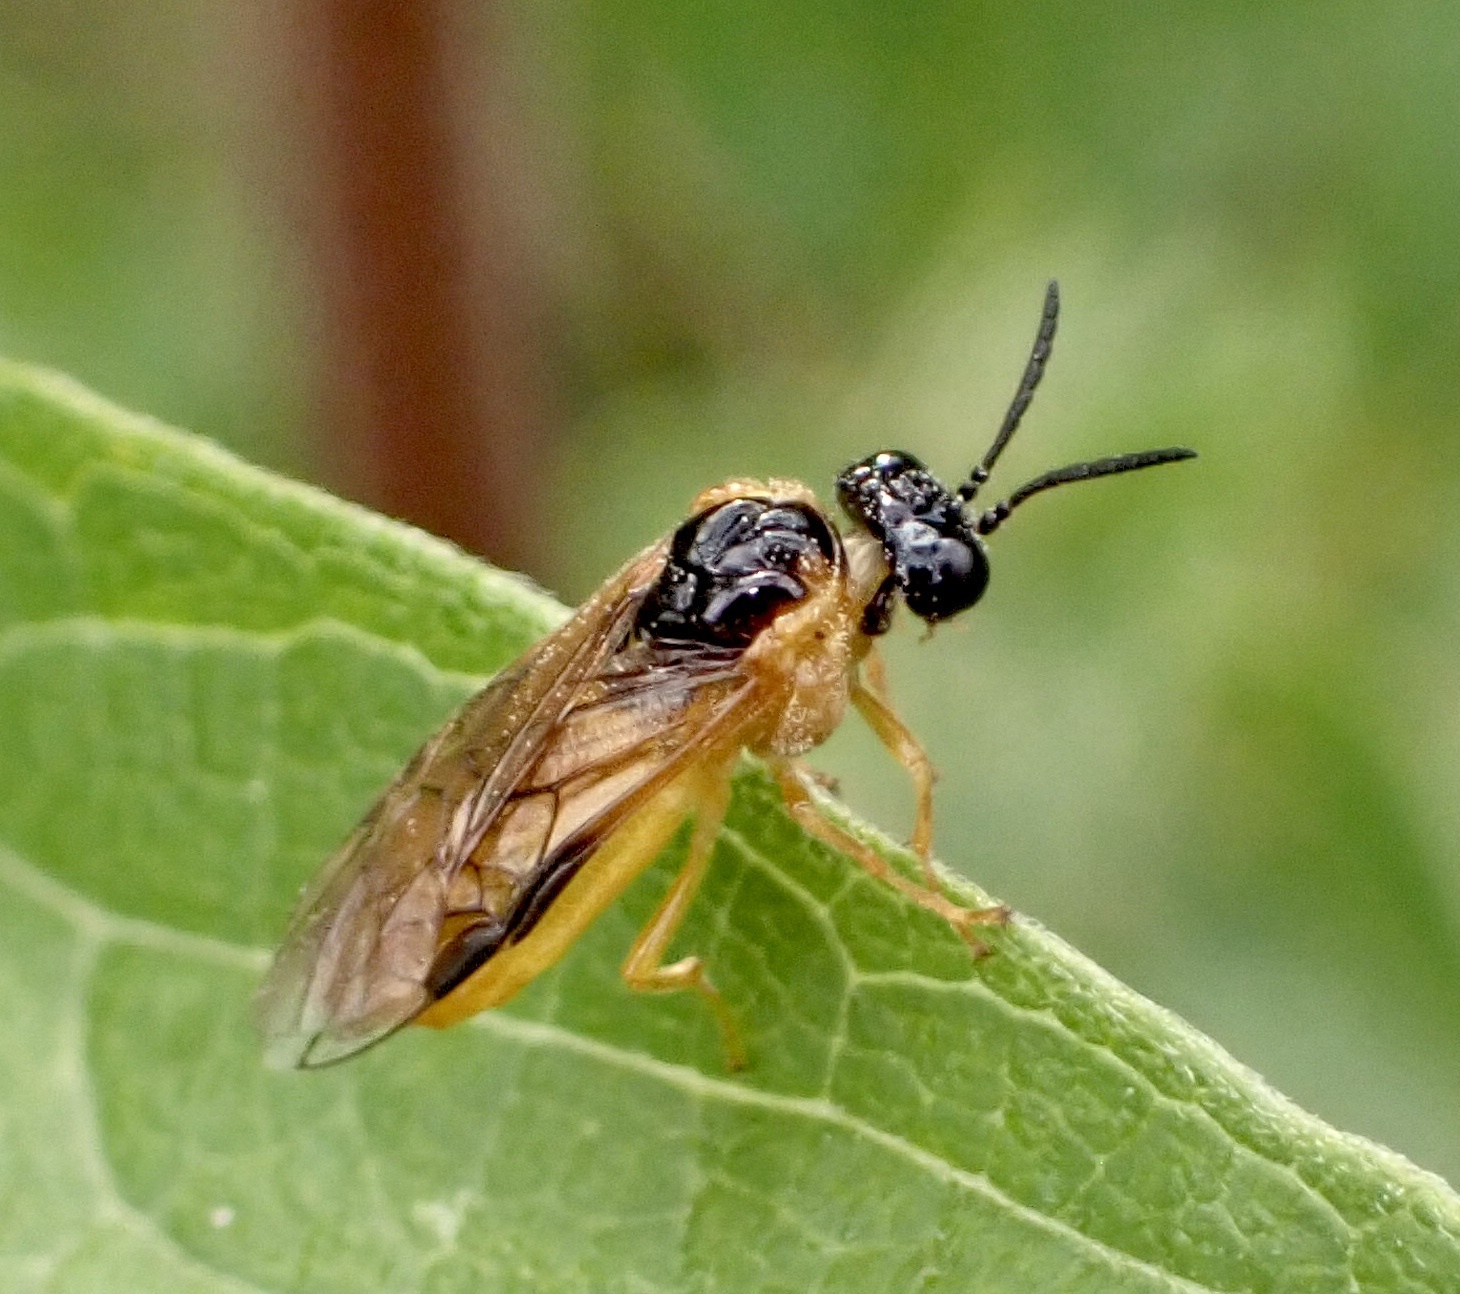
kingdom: Animalia
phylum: Arthropoda
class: Insecta
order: Hymenoptera
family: Tenthredinidae
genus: Selandria
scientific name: Selandria serva
